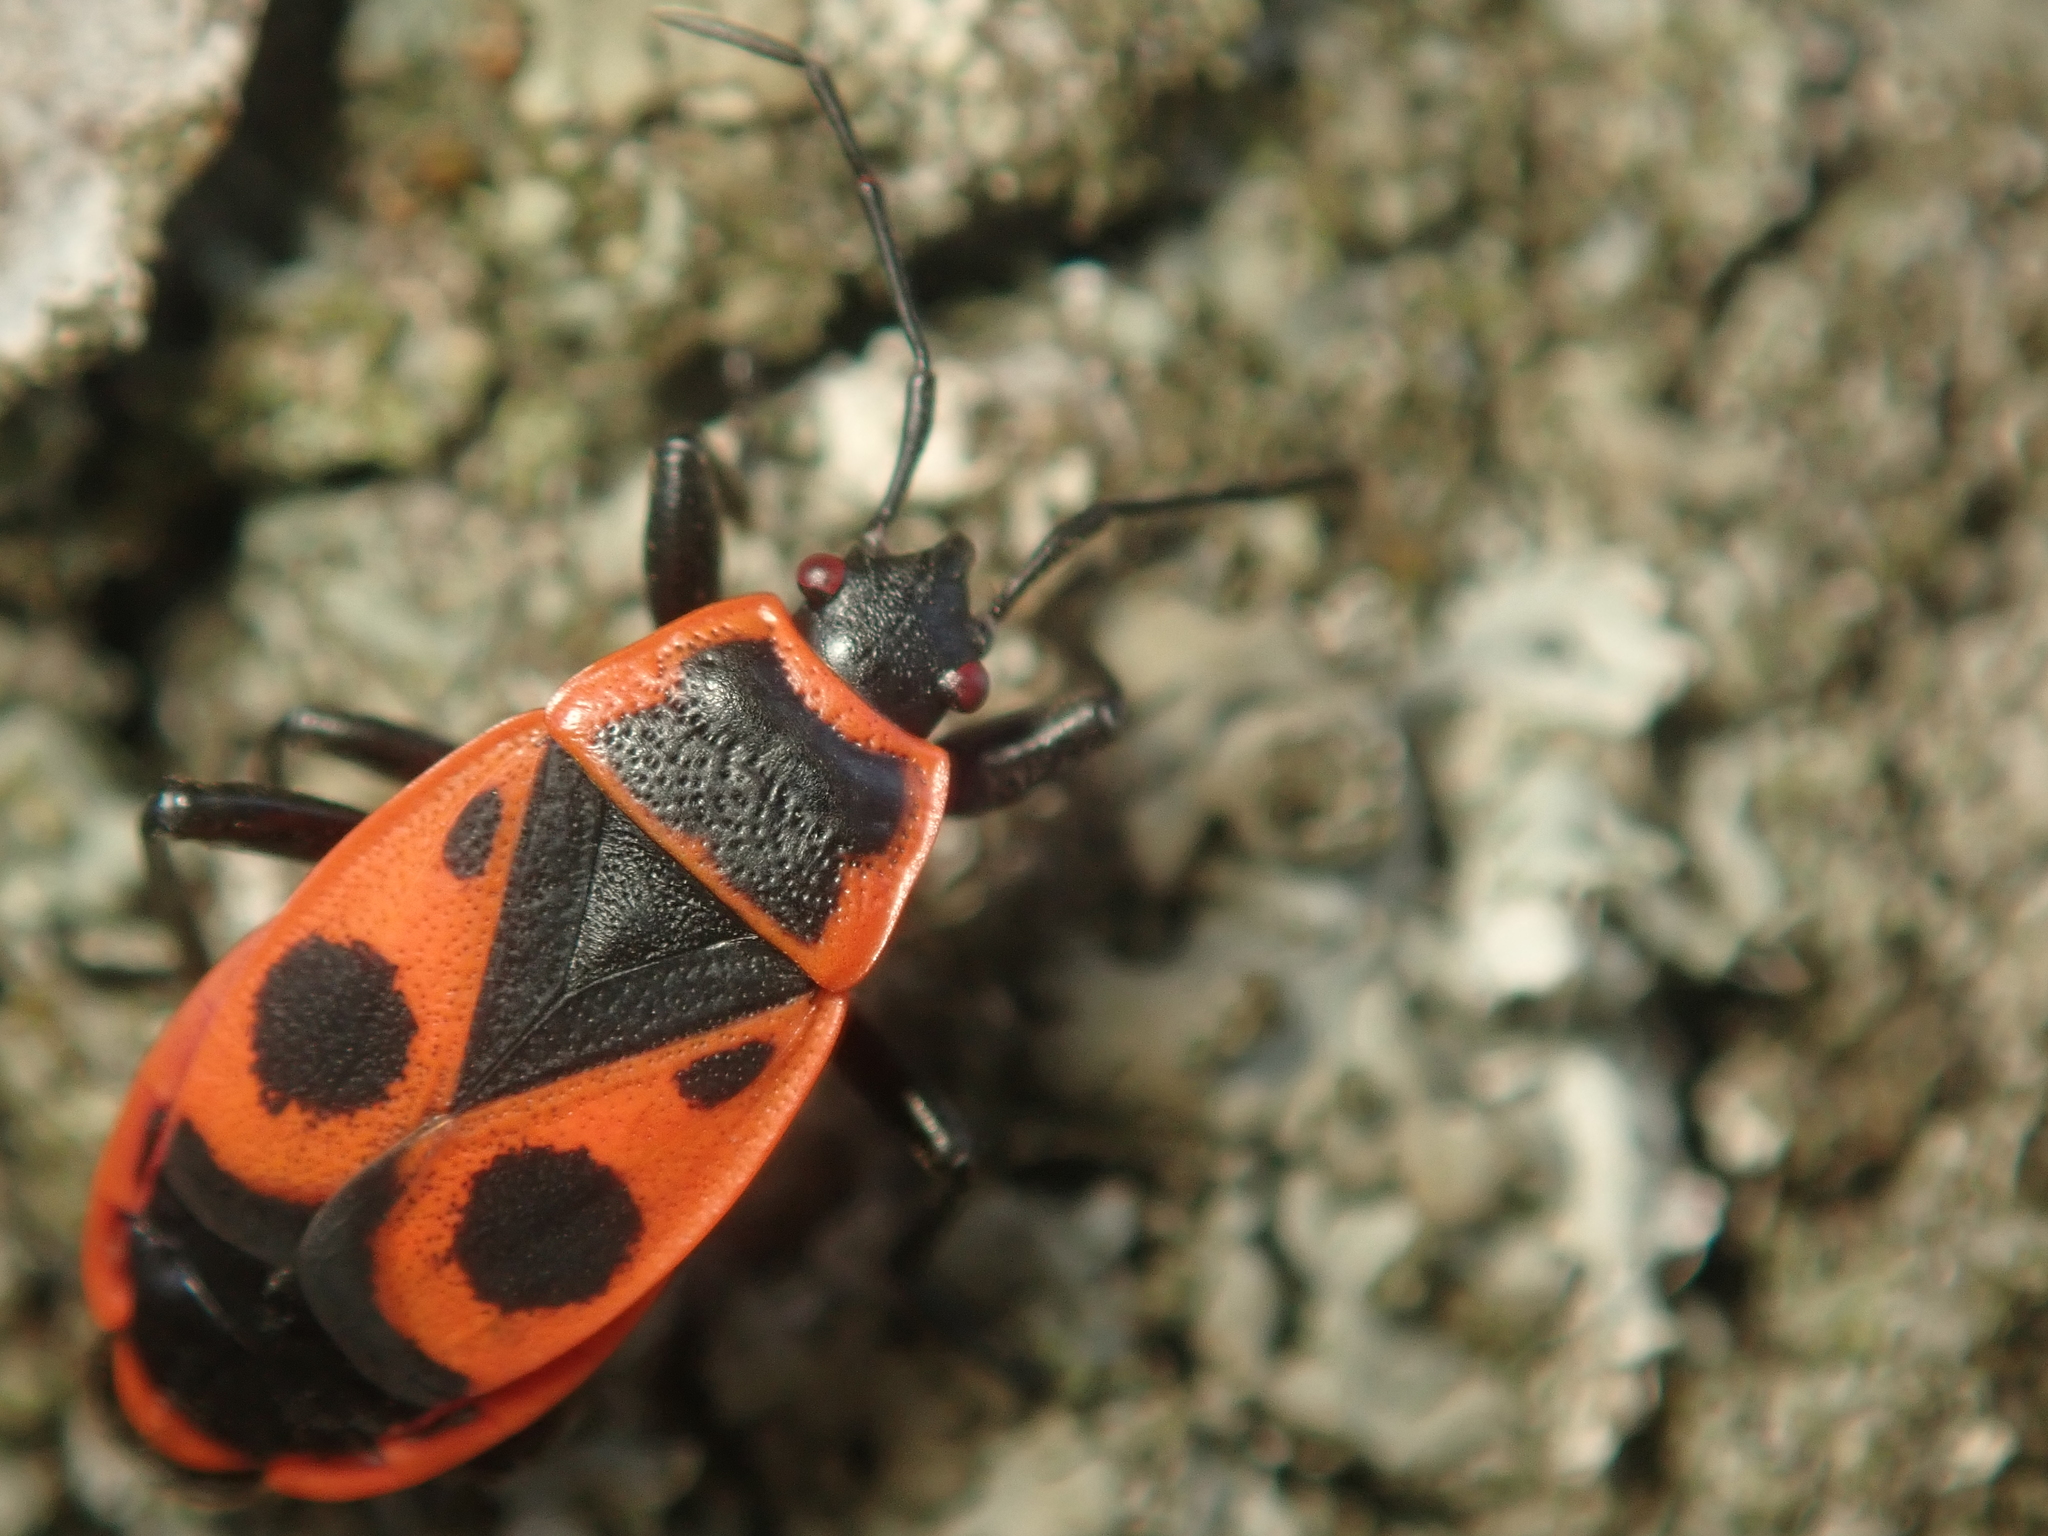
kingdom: Animalia
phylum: Arthropoda
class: Insecta
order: Hemiptera
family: Pyrrhocoridae
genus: Pyrrhocoris
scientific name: Pyrrhocoris apterus
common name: Firebug
